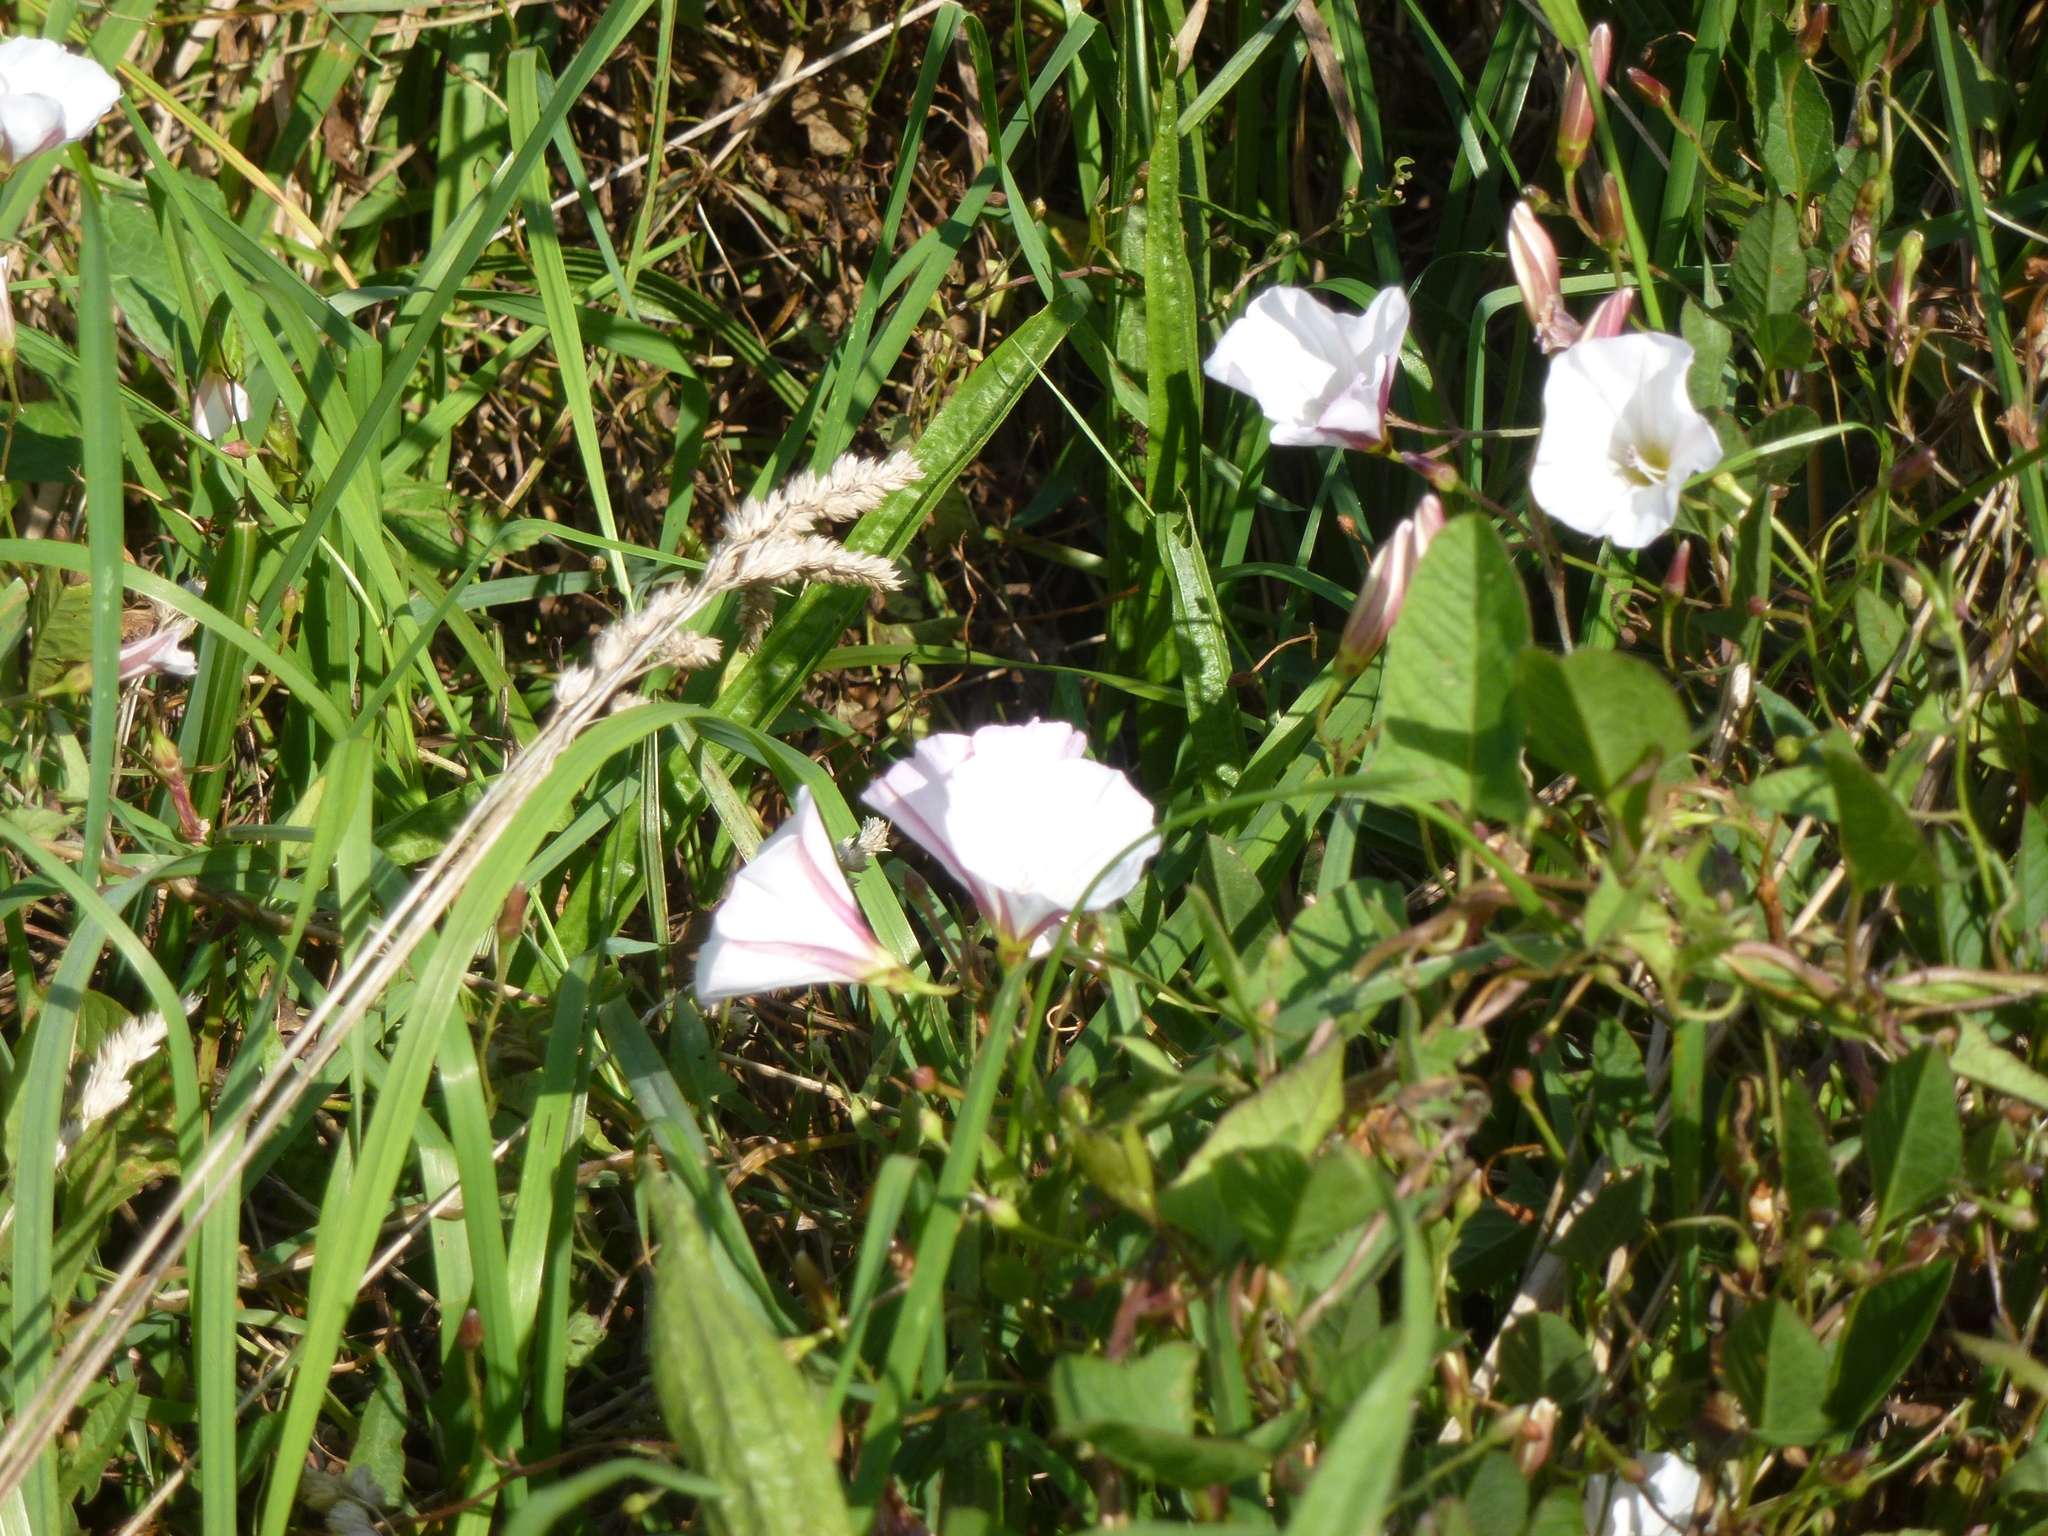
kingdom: Plantae
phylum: Tracheophyta
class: Magnoliopsida
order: Solanales
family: Convolvulaceae
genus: Convolvulus
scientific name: Convolvulus arvensis
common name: Field bindweed
